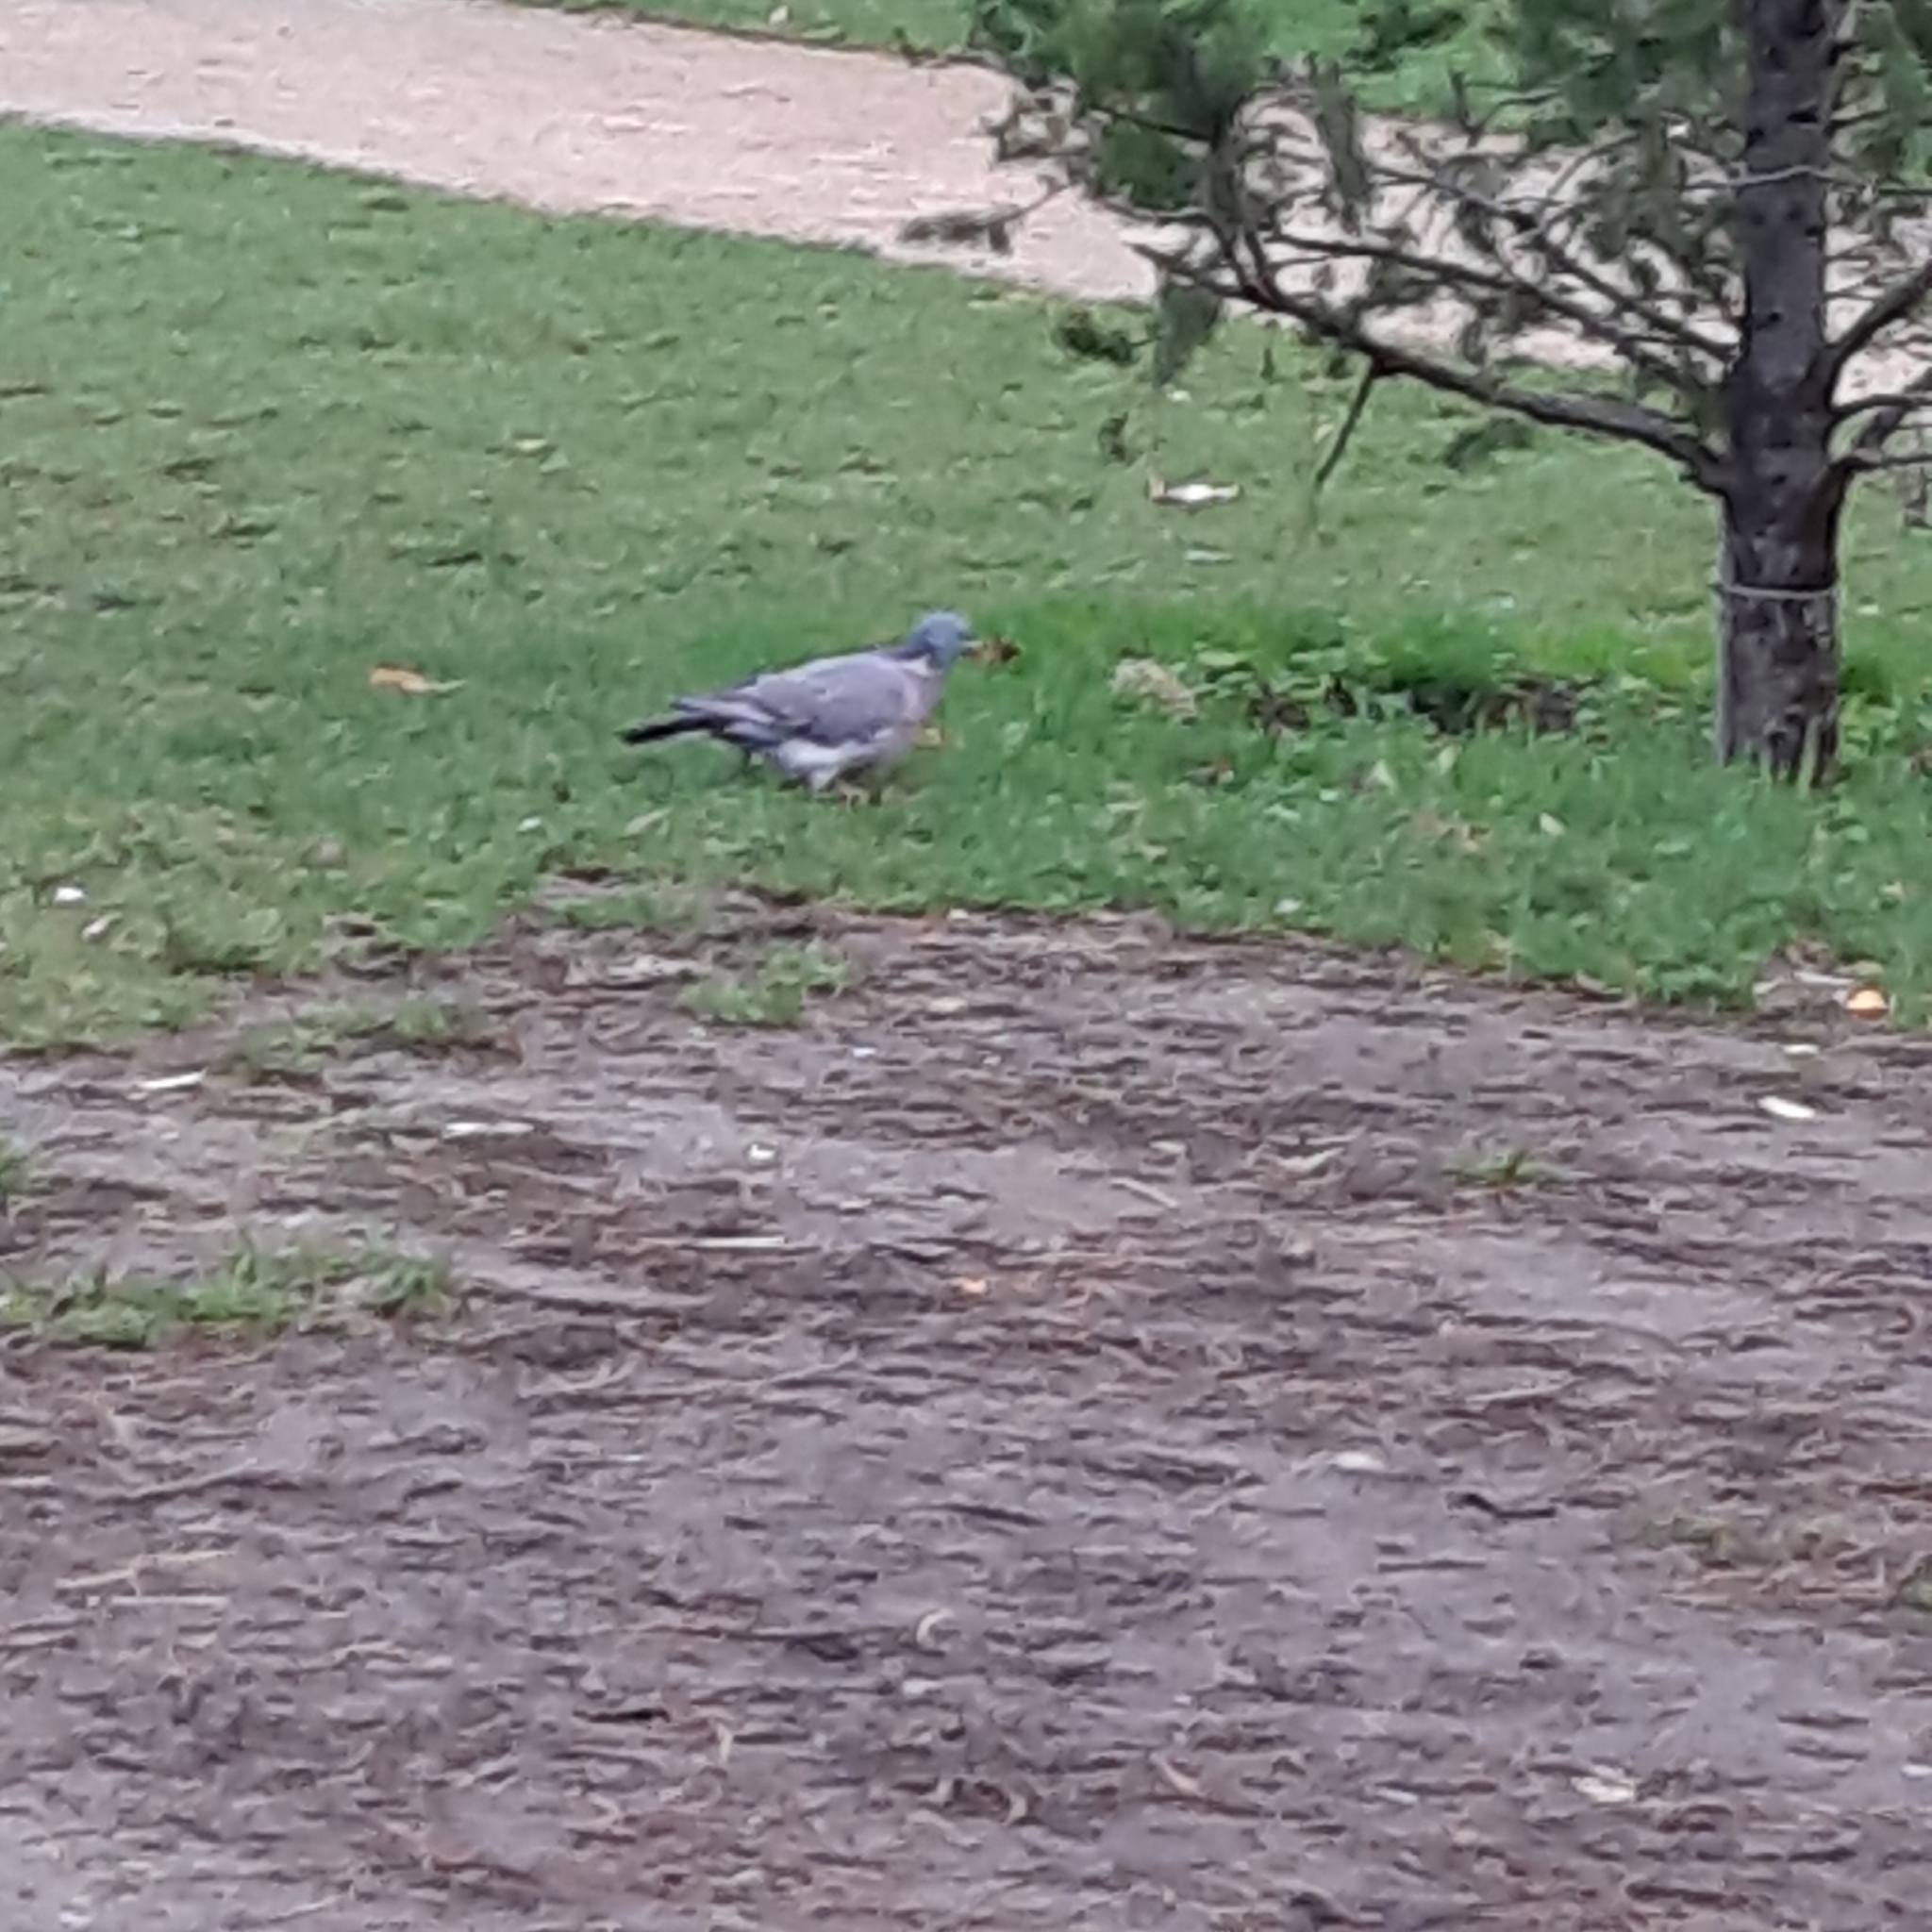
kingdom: Animalia
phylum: Chordata
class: Aves
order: Columbiformes
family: Columbidae
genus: Columba
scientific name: Columba palumbus
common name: Common wood pigeon
